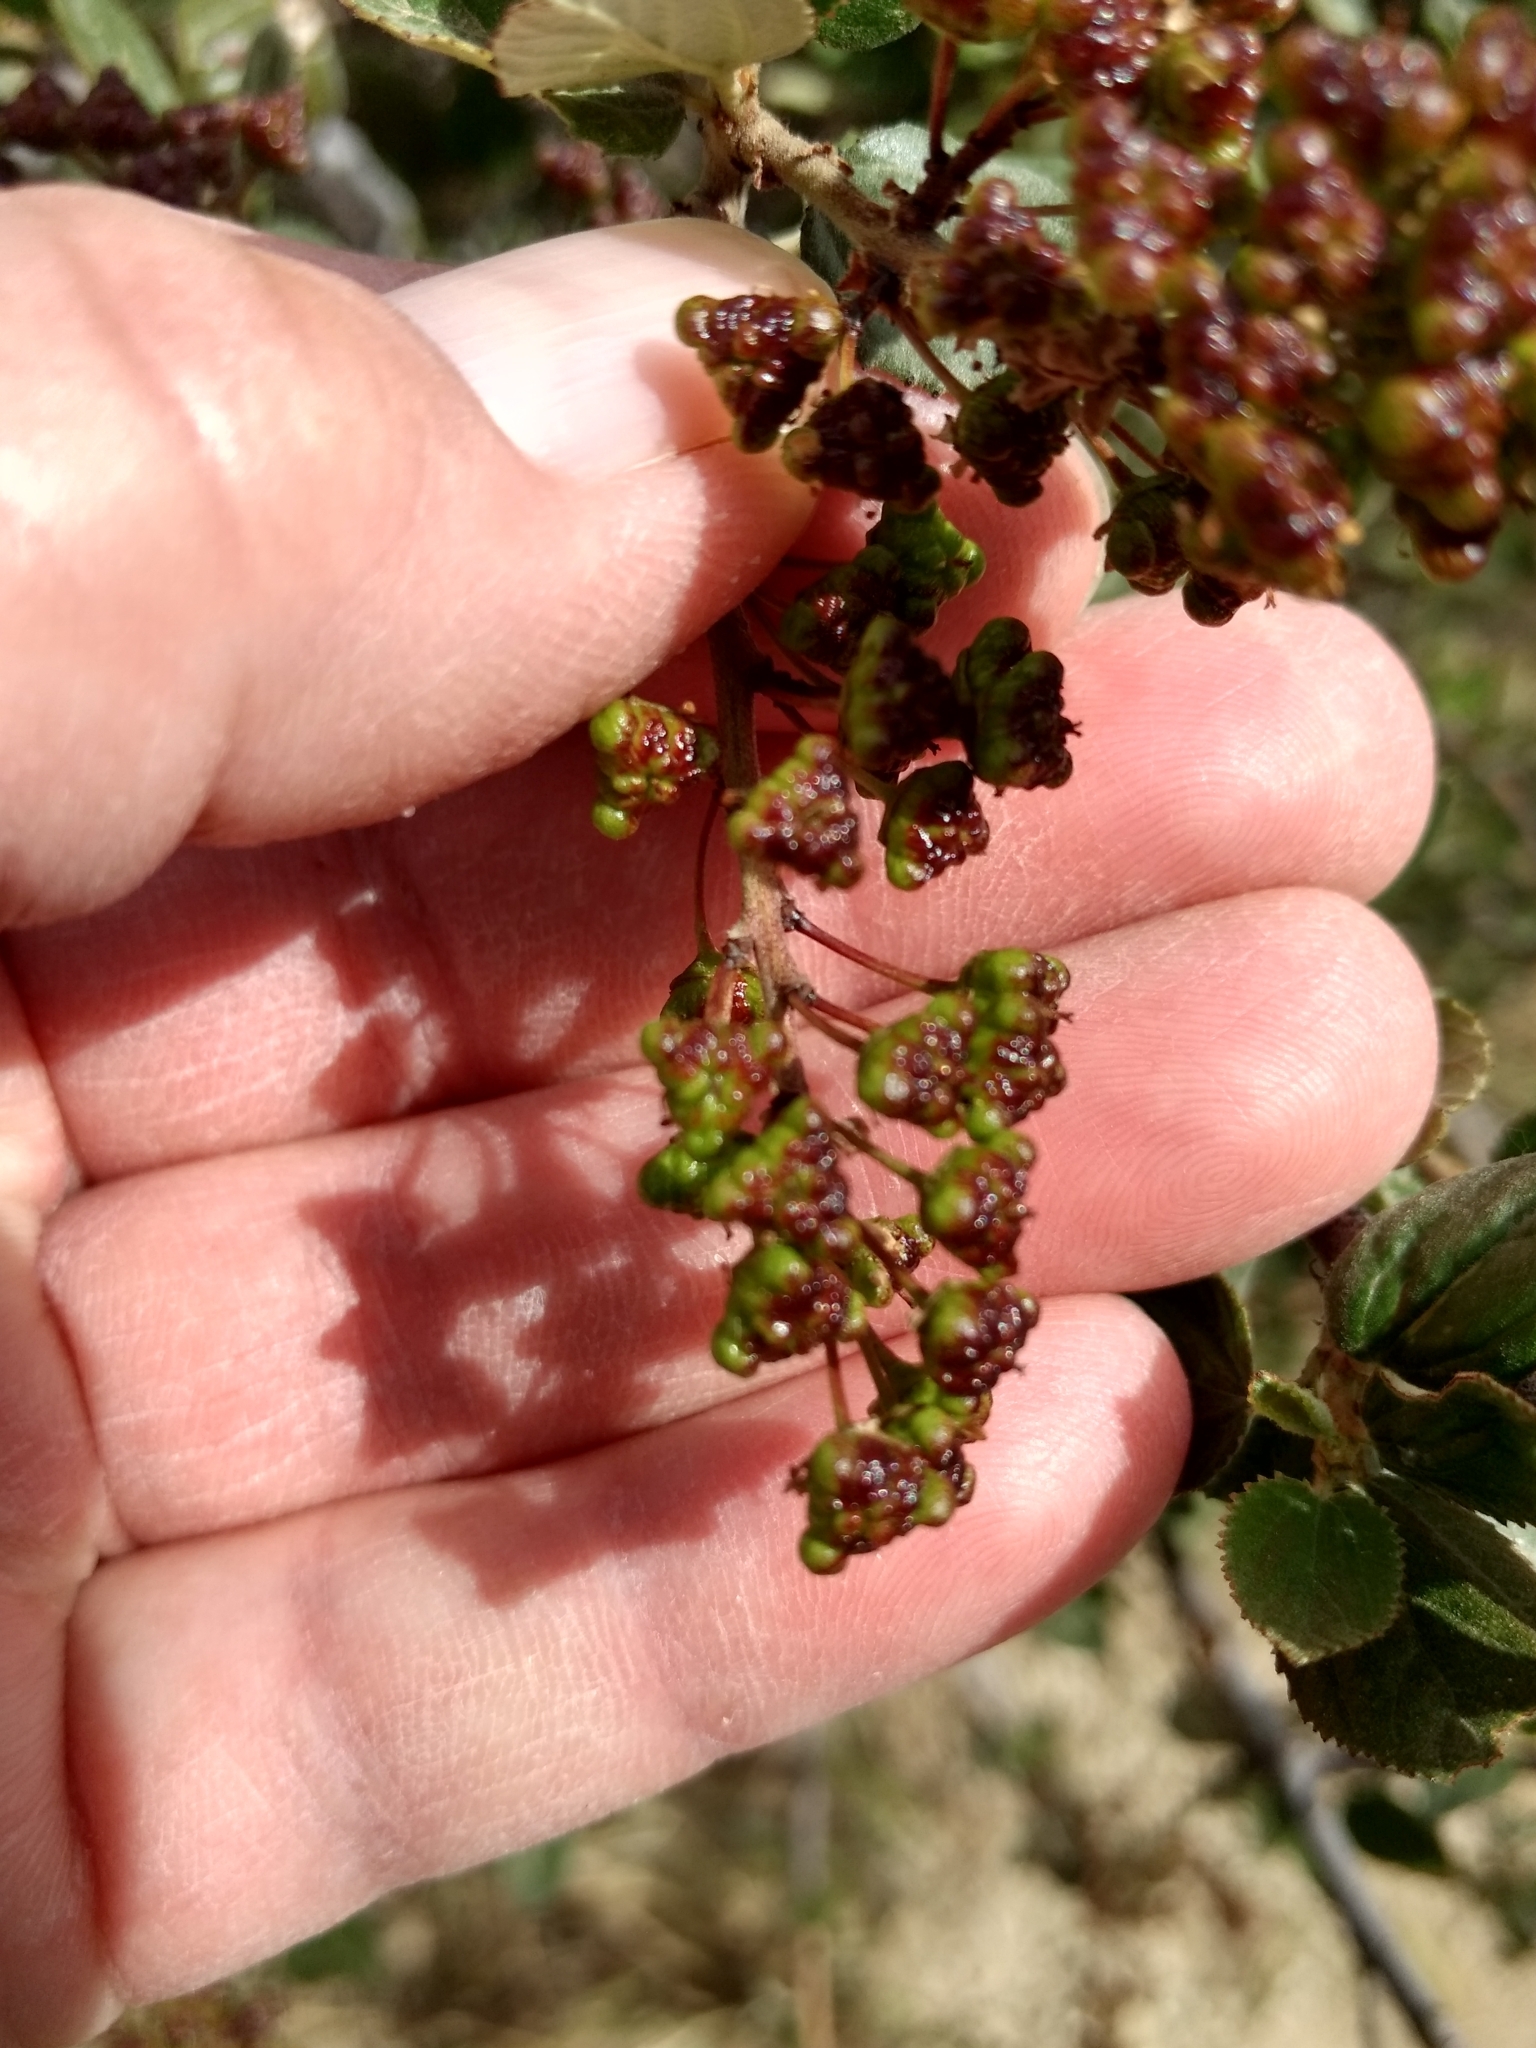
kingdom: Plantae
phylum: Tracheophyta
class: Magnoliopsida
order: Rosales
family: Rhamnaceae
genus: Ceanothus
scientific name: Ceanothus tomentosus
